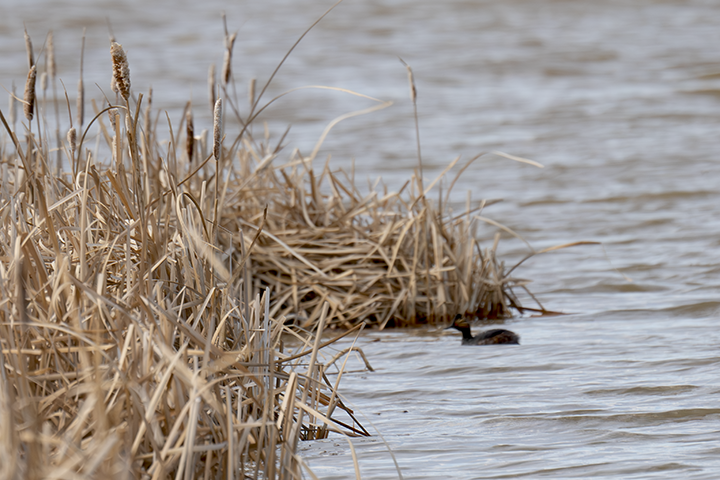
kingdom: Animalia
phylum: Chordata
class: Aves
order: Podicipediformes
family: Podicipedidae
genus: Podiceps
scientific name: Podiceps nigricollis
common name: Black-necked grebe
